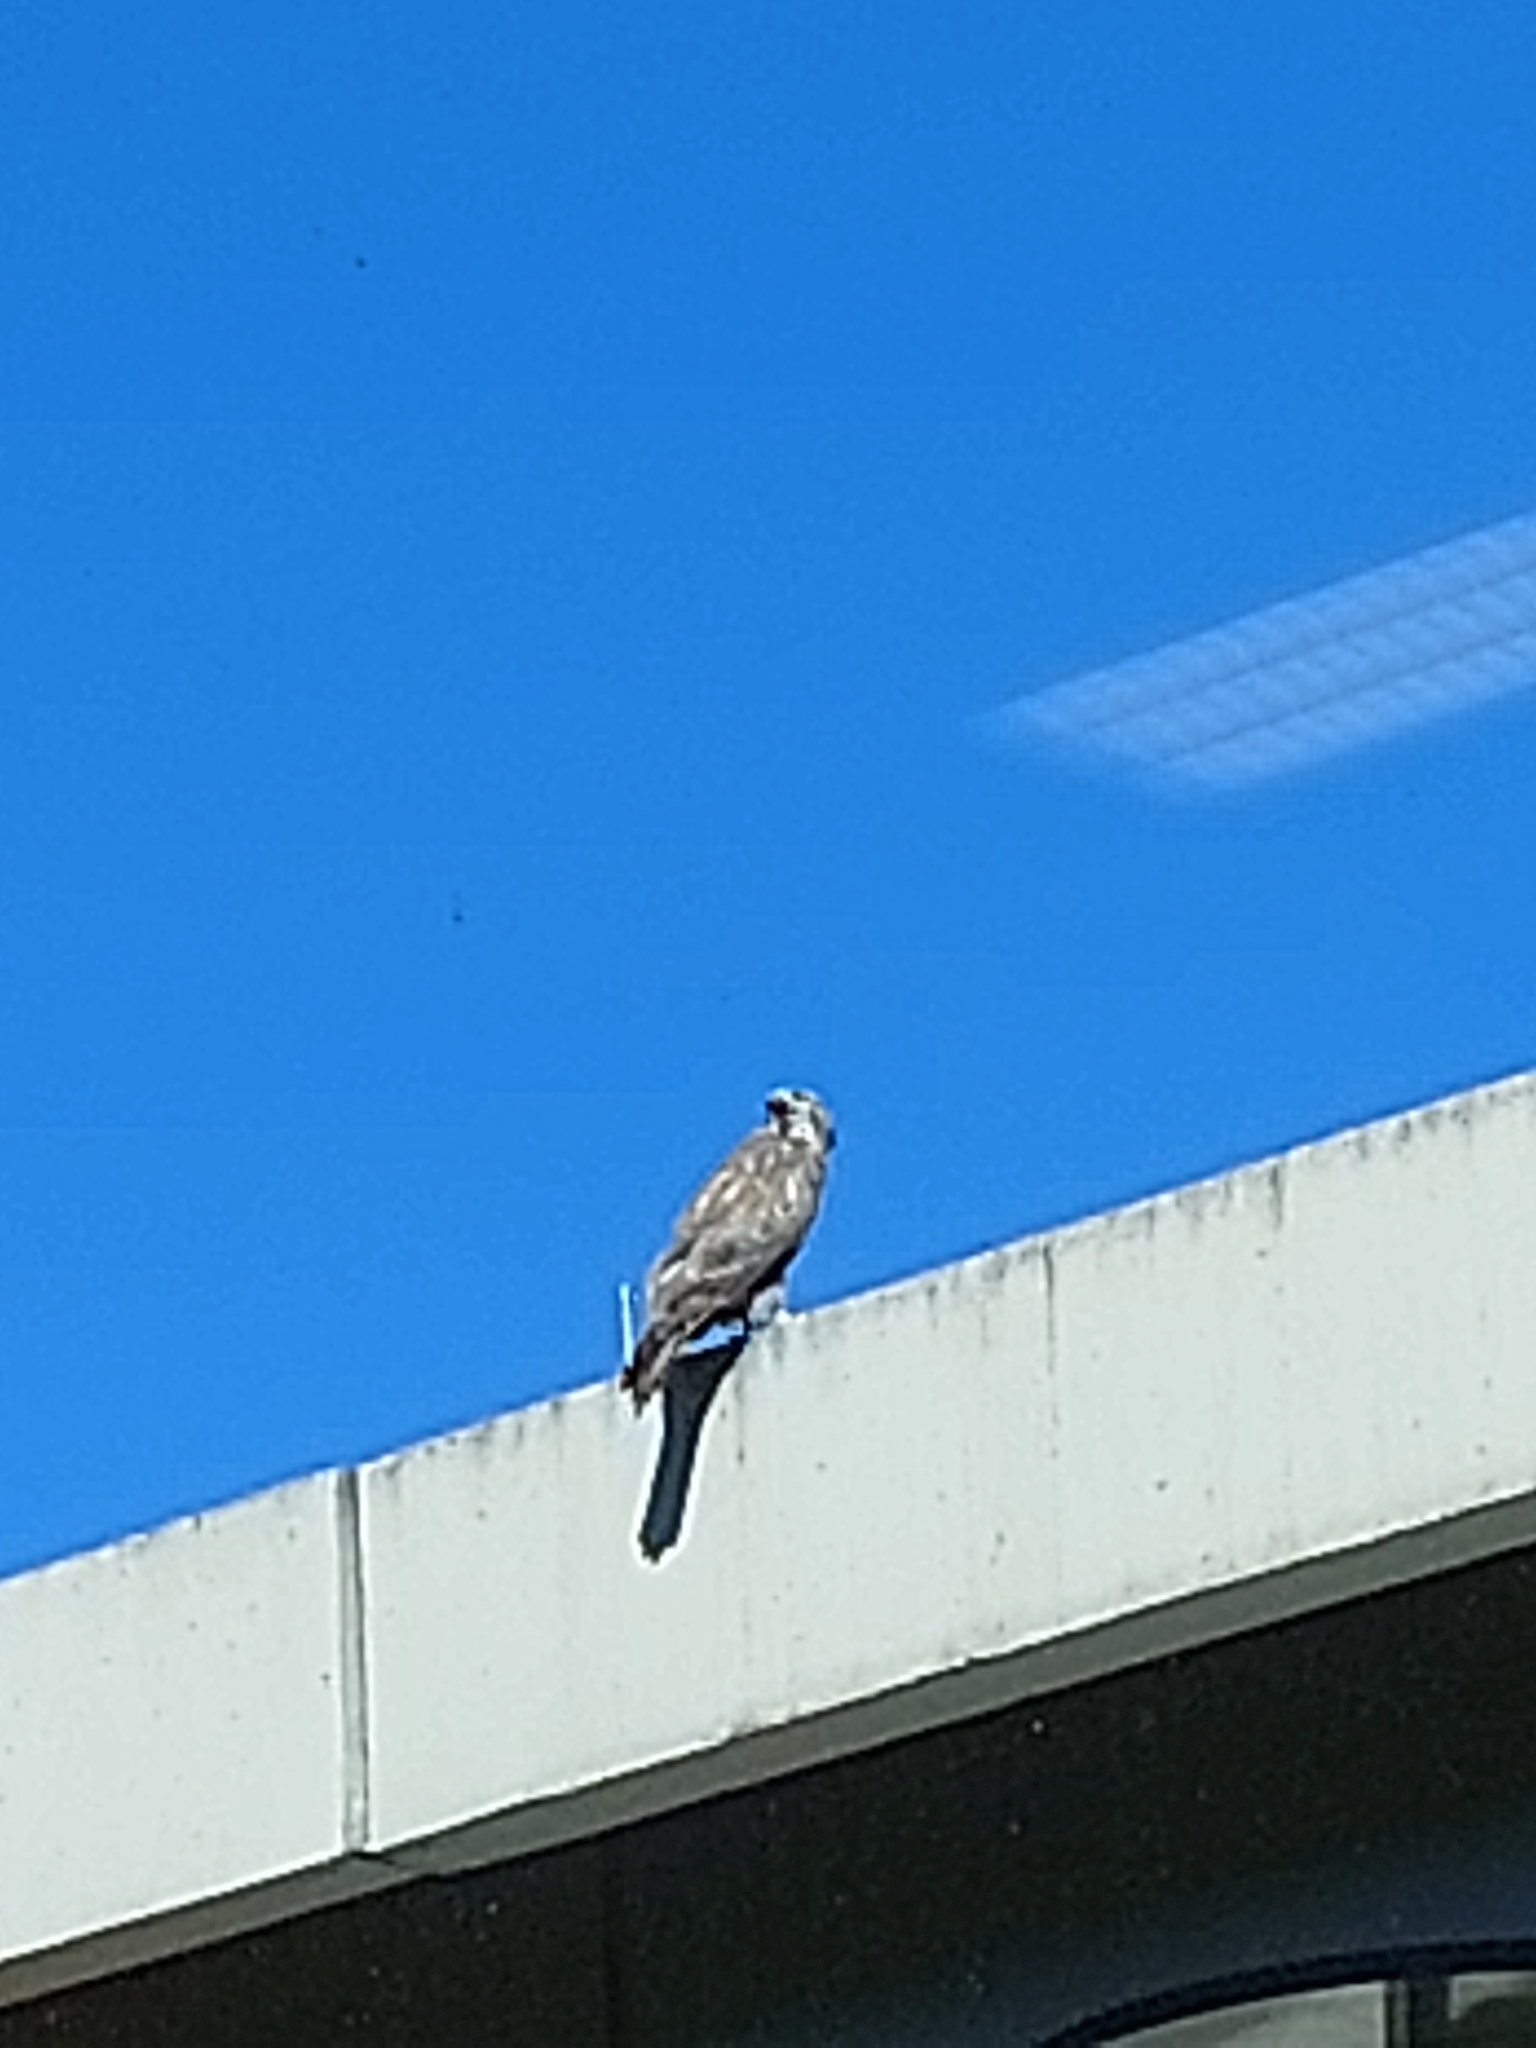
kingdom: Animalia
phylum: Chordata
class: Aves
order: Accipitriformes
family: Accipitridae
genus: Buteo
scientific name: Buteo buteo
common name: Common buzzard
